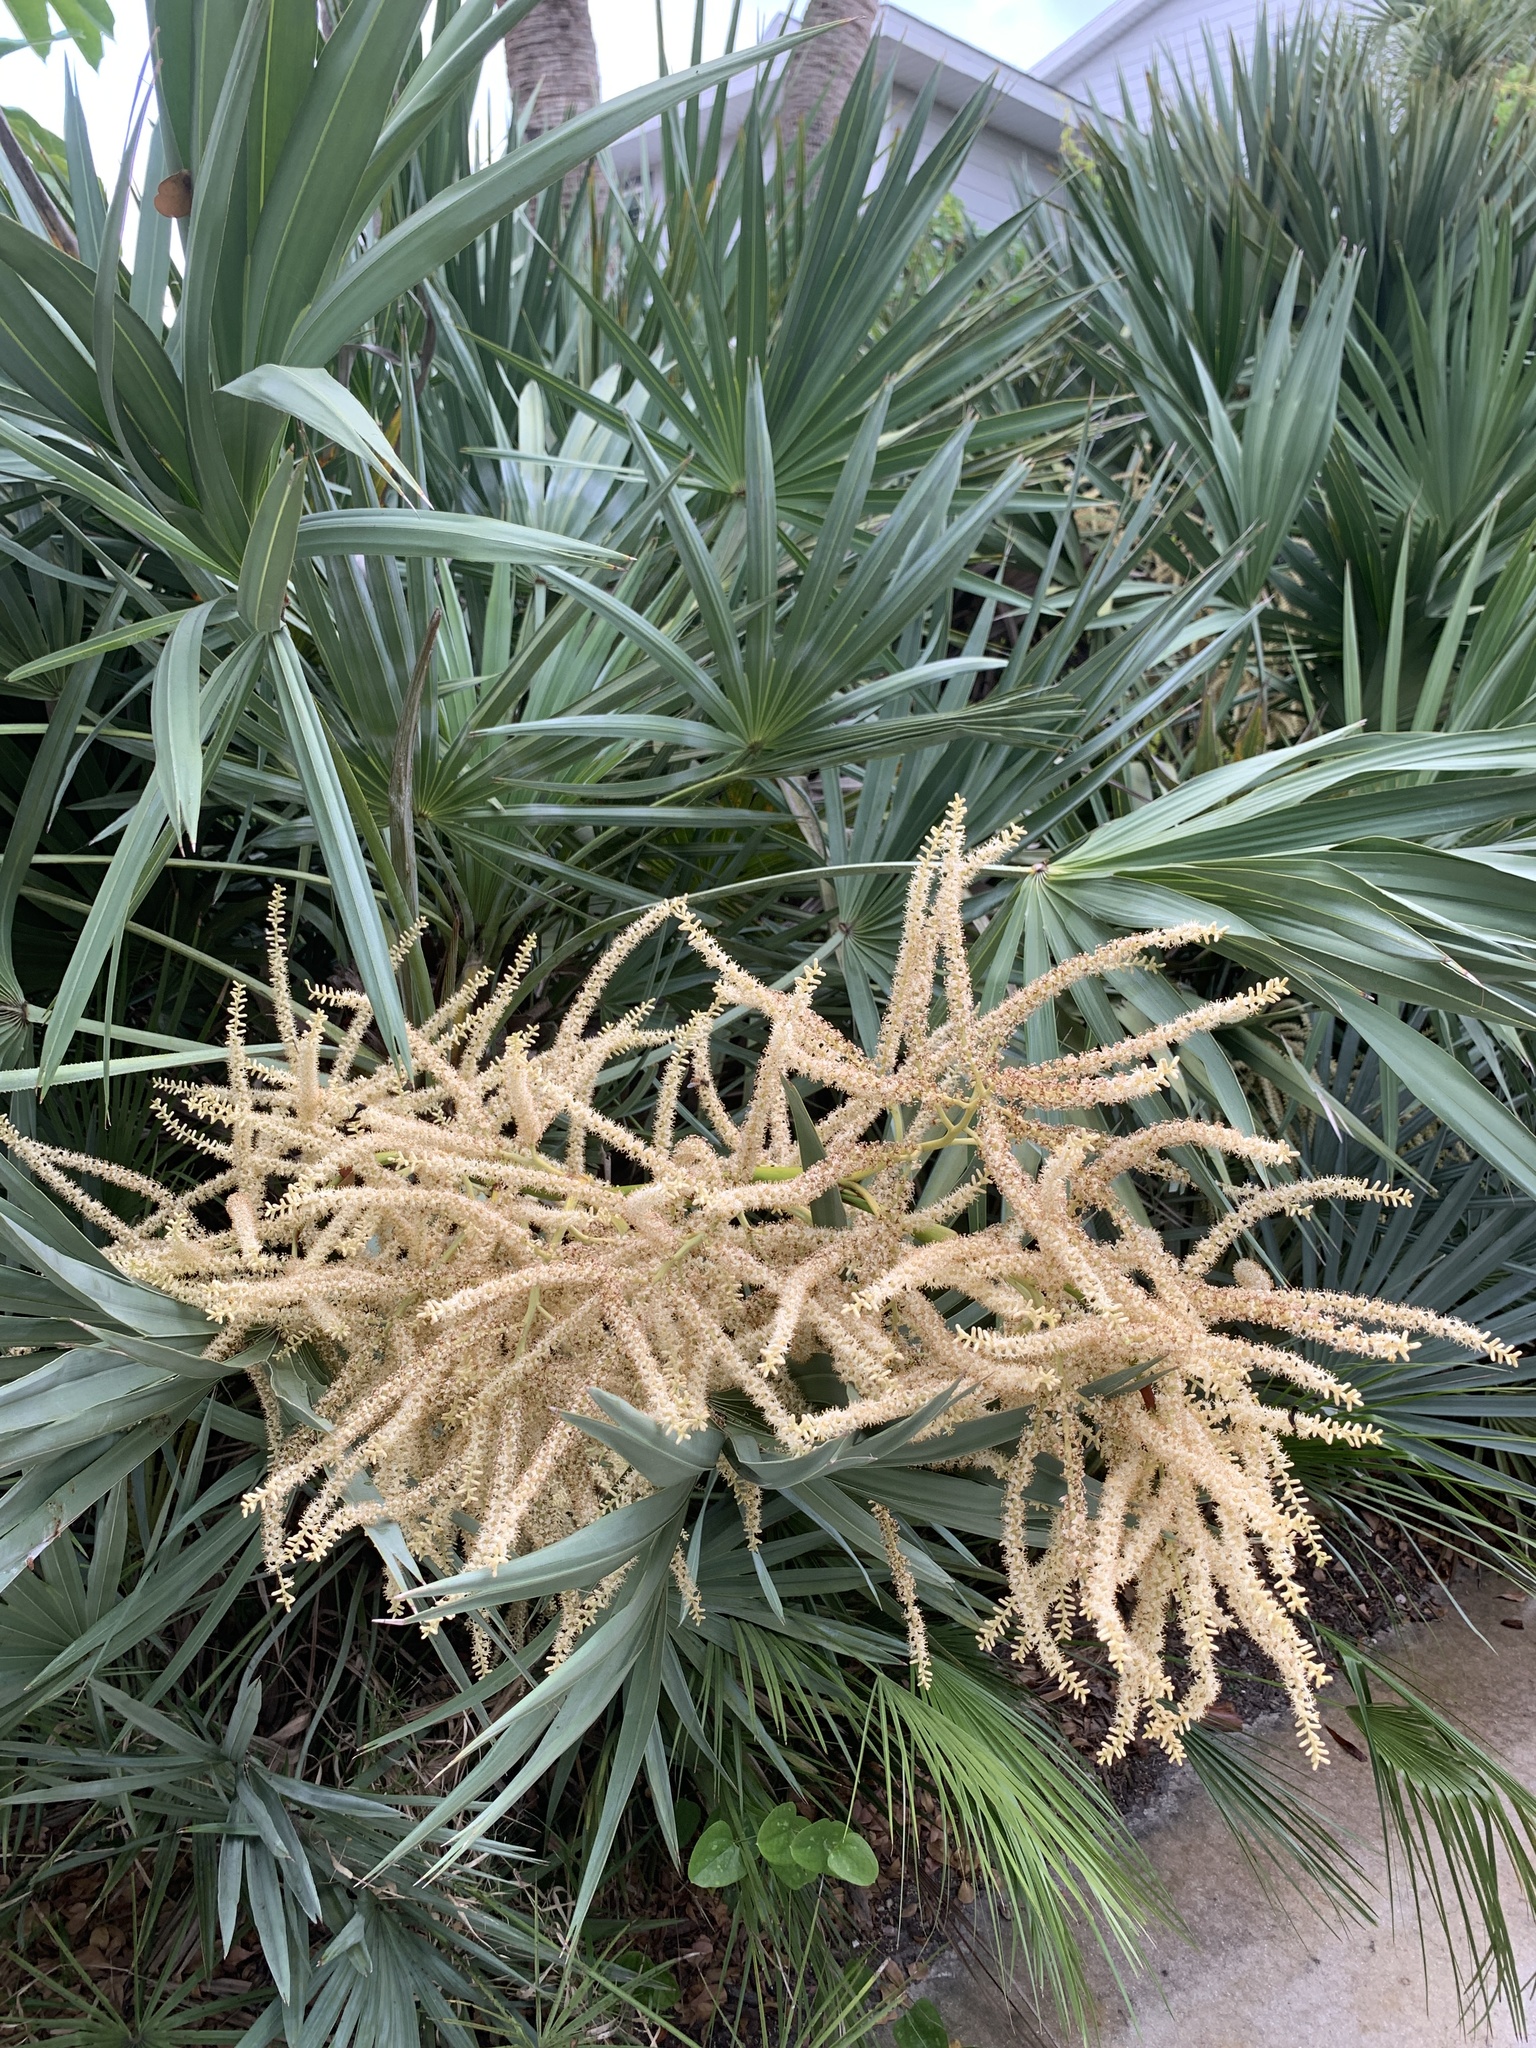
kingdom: Plantae
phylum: Tracheophyta
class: Liliopsida
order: Arecales
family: Arecaceae
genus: Serenoa
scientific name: Serenoa repens
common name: Saw-palmetto
